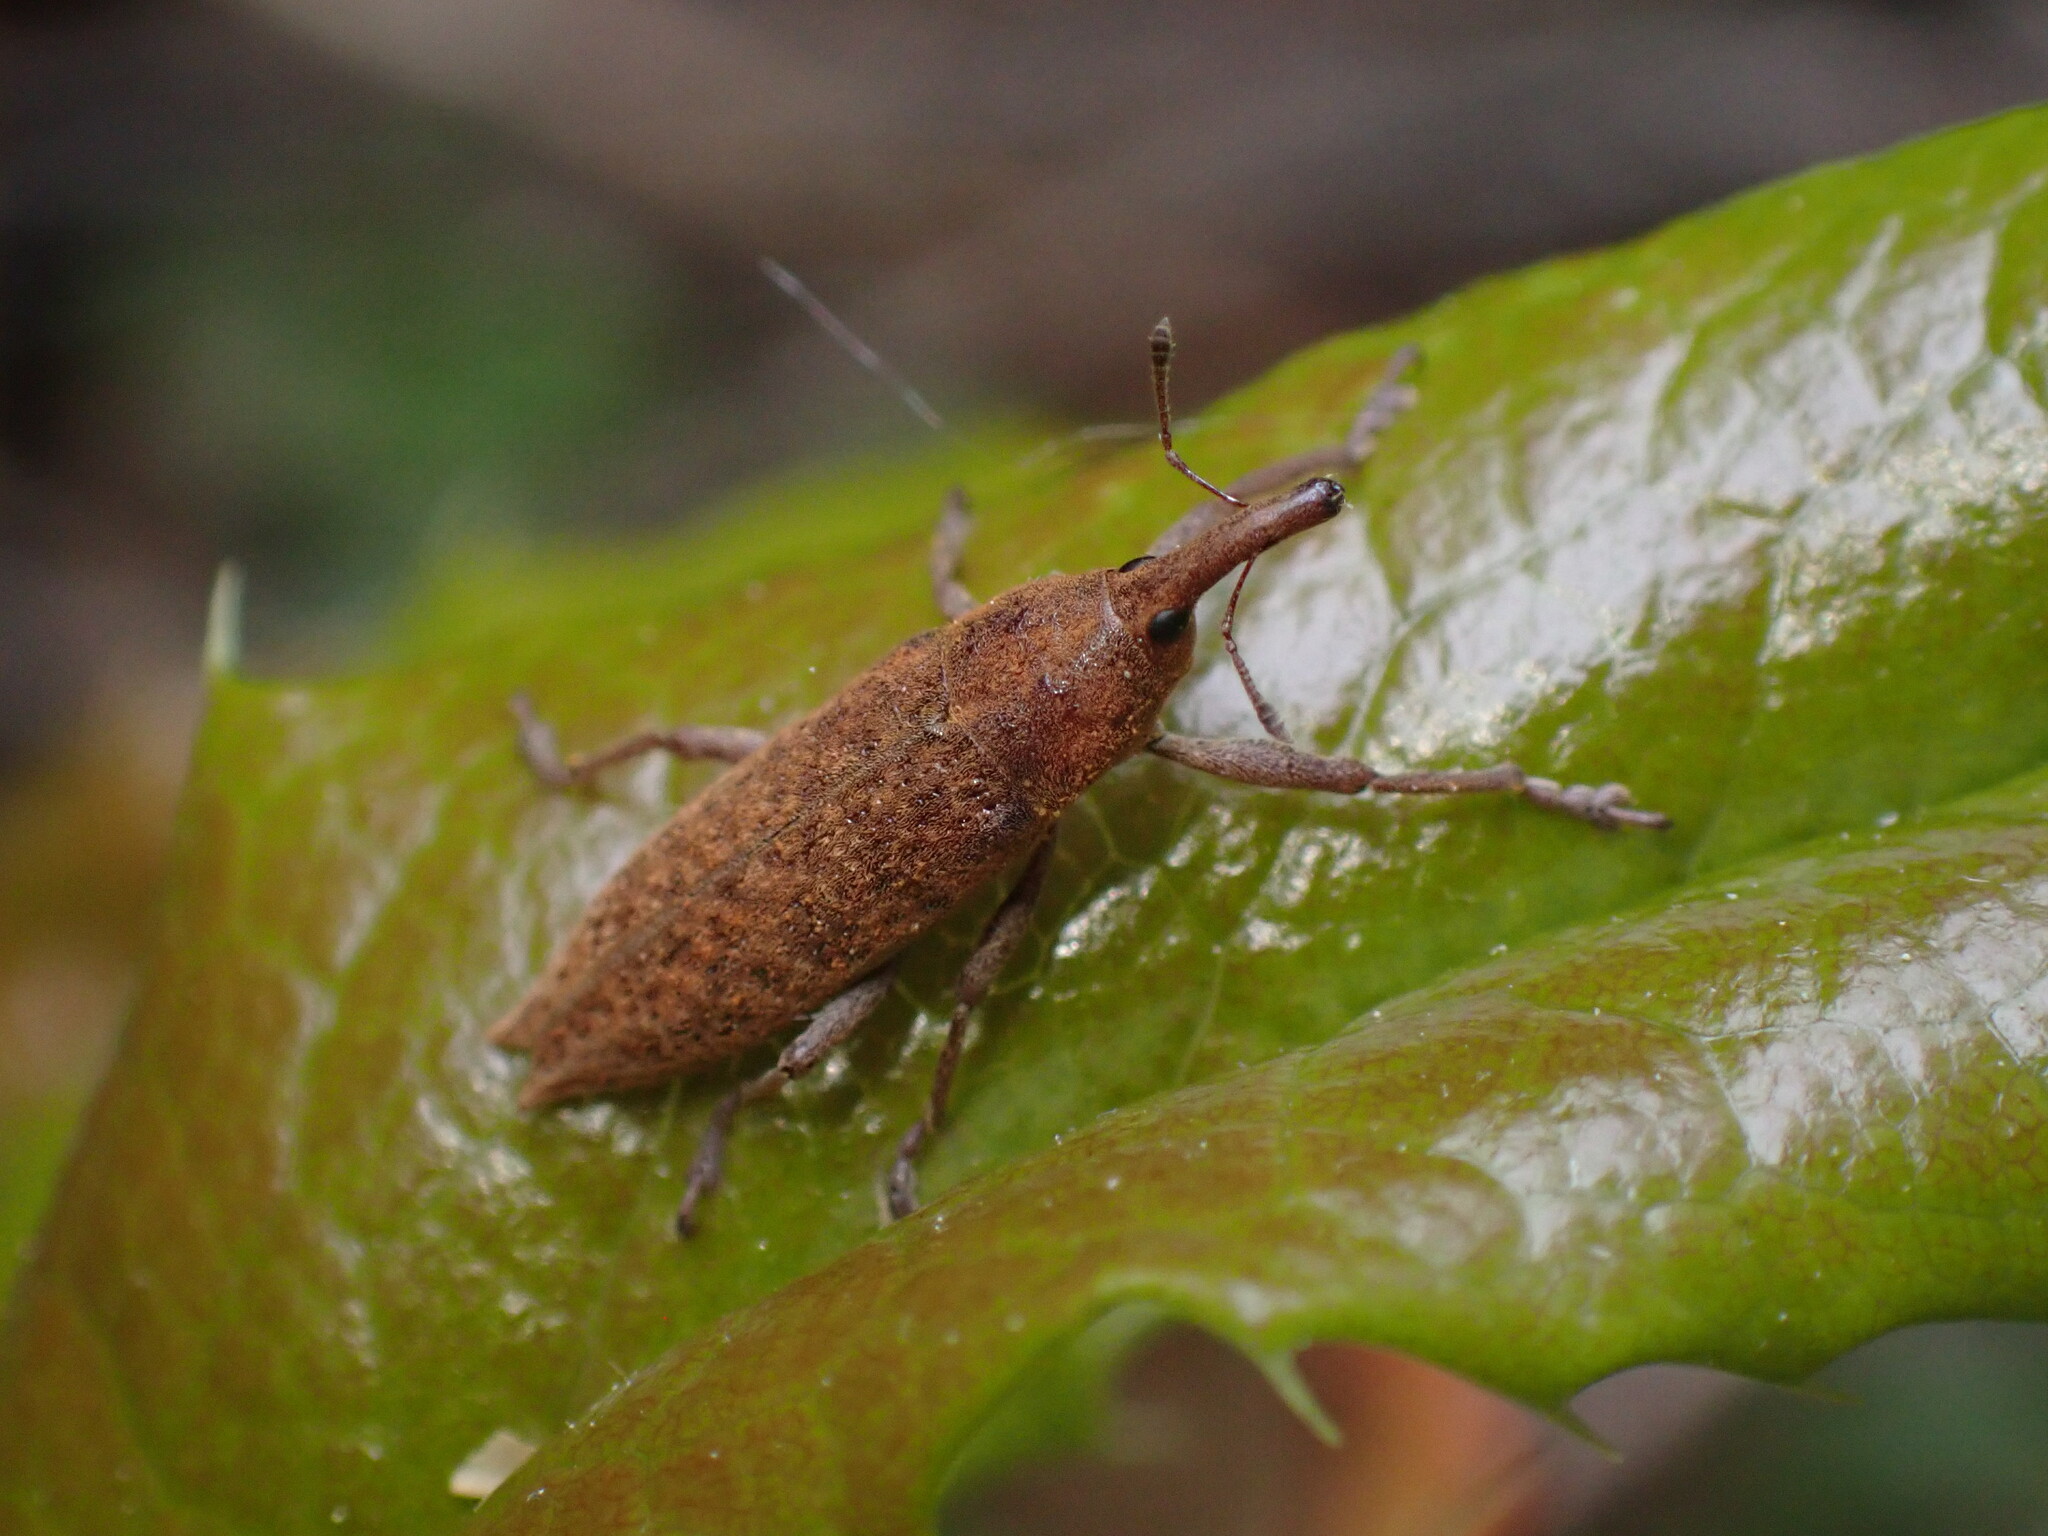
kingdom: Animalia
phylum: Arthropoda
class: Insecta
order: Coleoptera
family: Curculionidae
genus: Lixus
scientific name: Lixus rubellus
